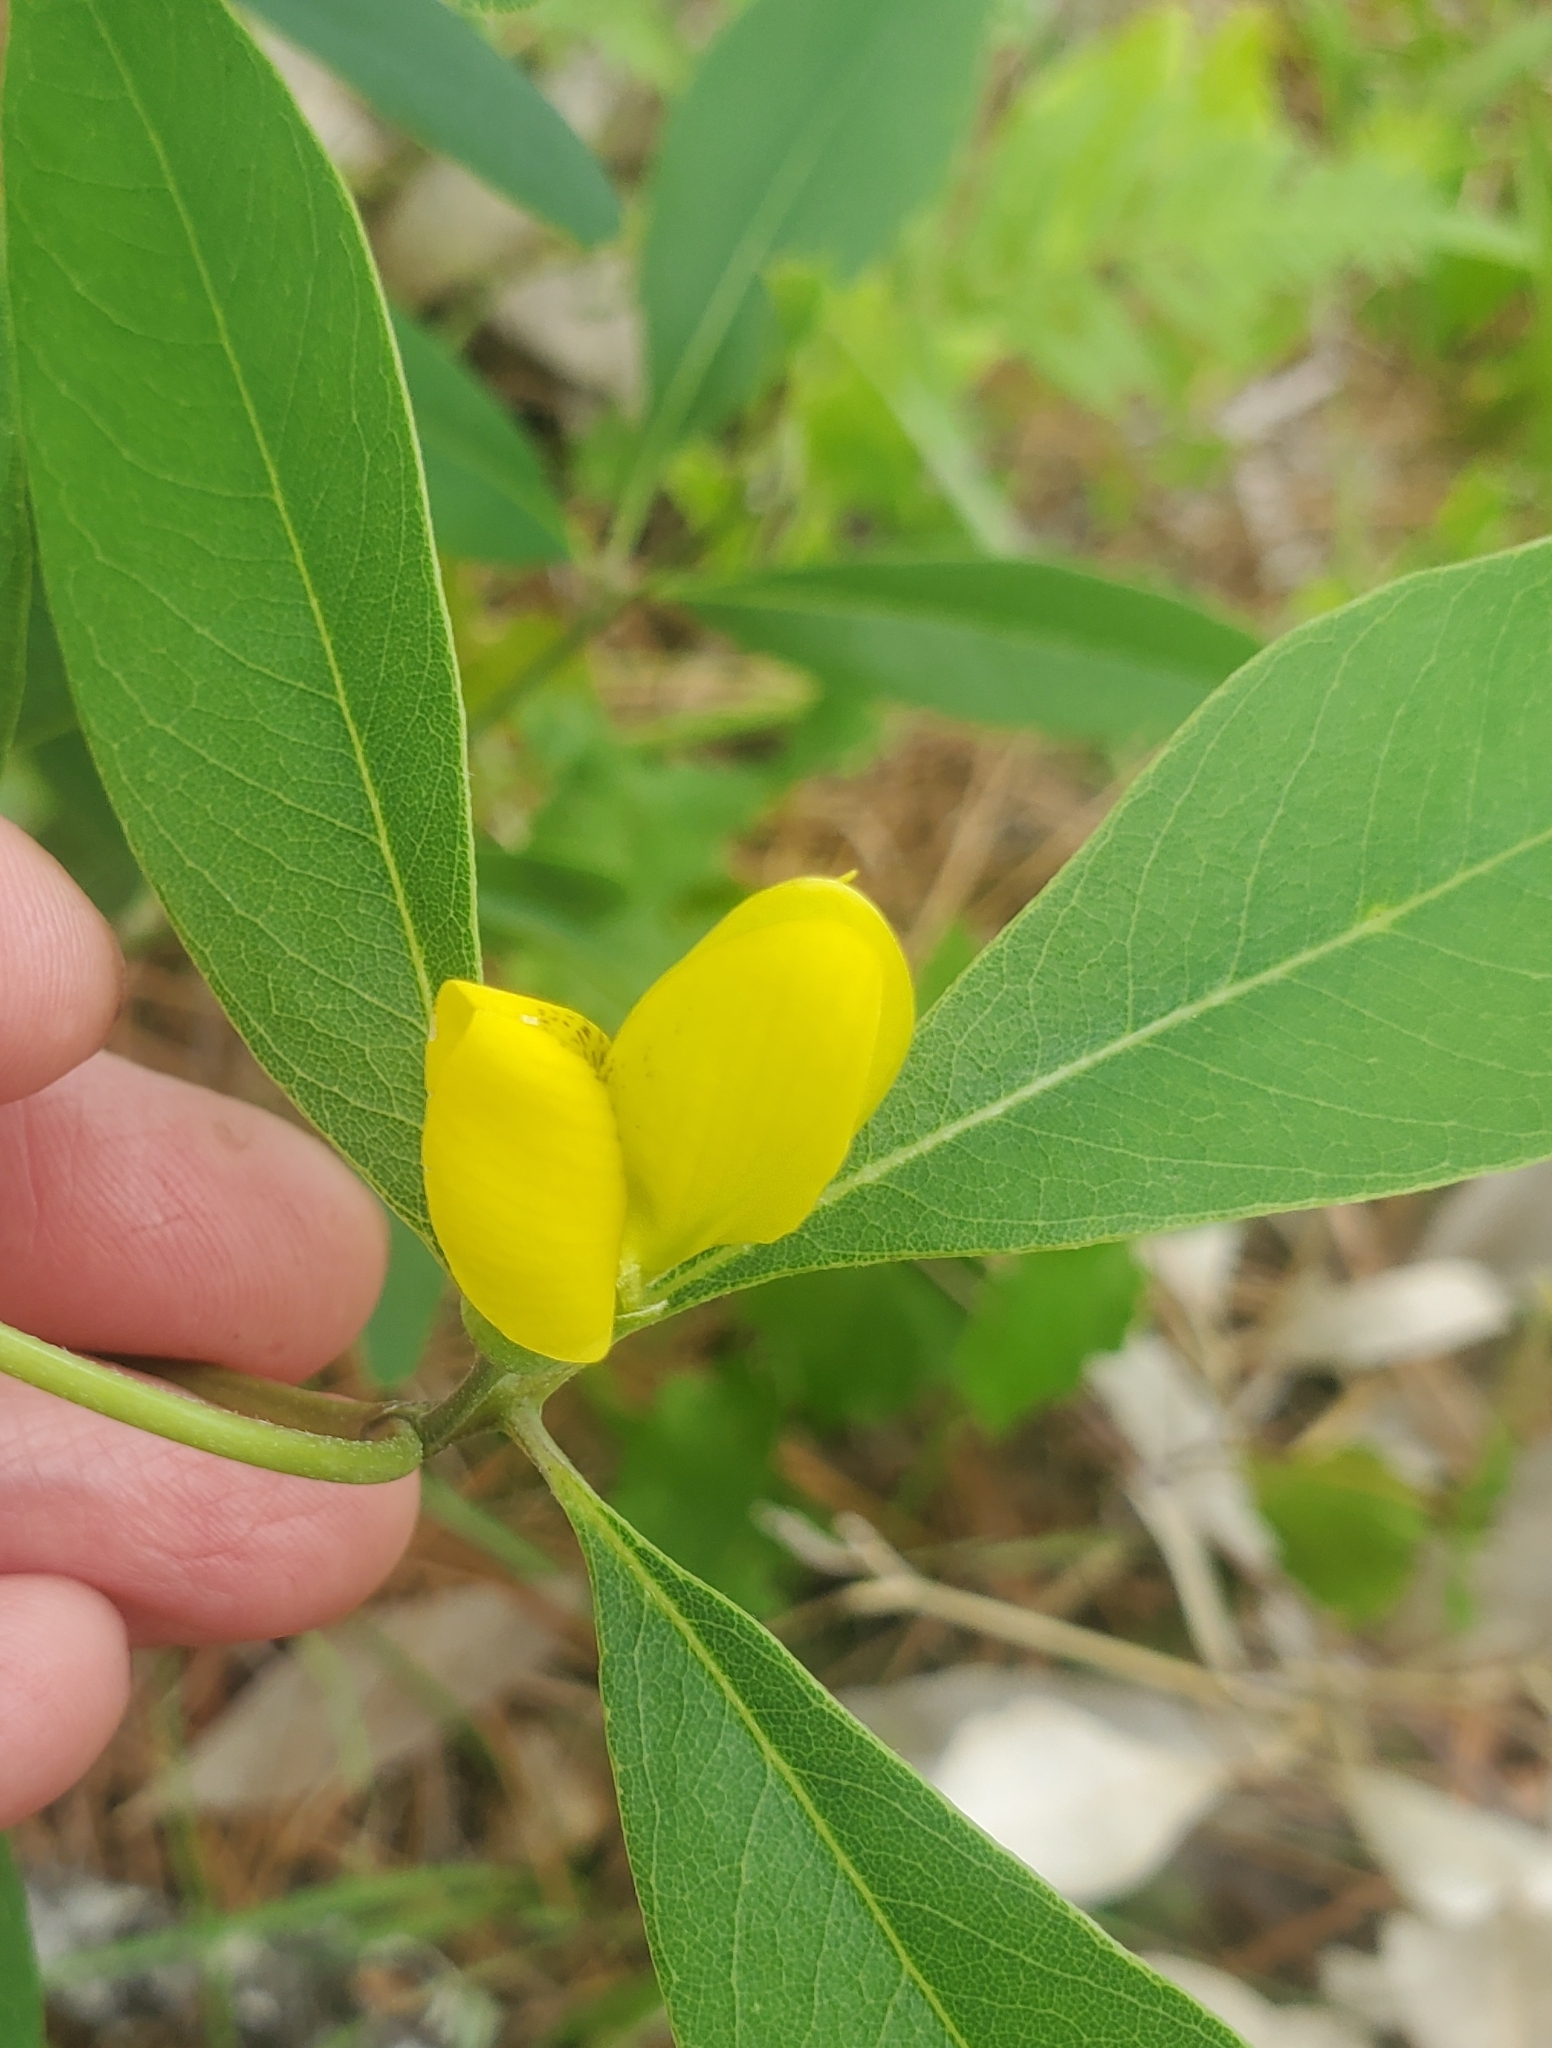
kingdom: Plantae
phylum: Tracheophyta
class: Magnoliopsida
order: Fabales
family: Fabaceae
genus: Baptisia
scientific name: Baptisia lanceolata
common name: Gopherweed
